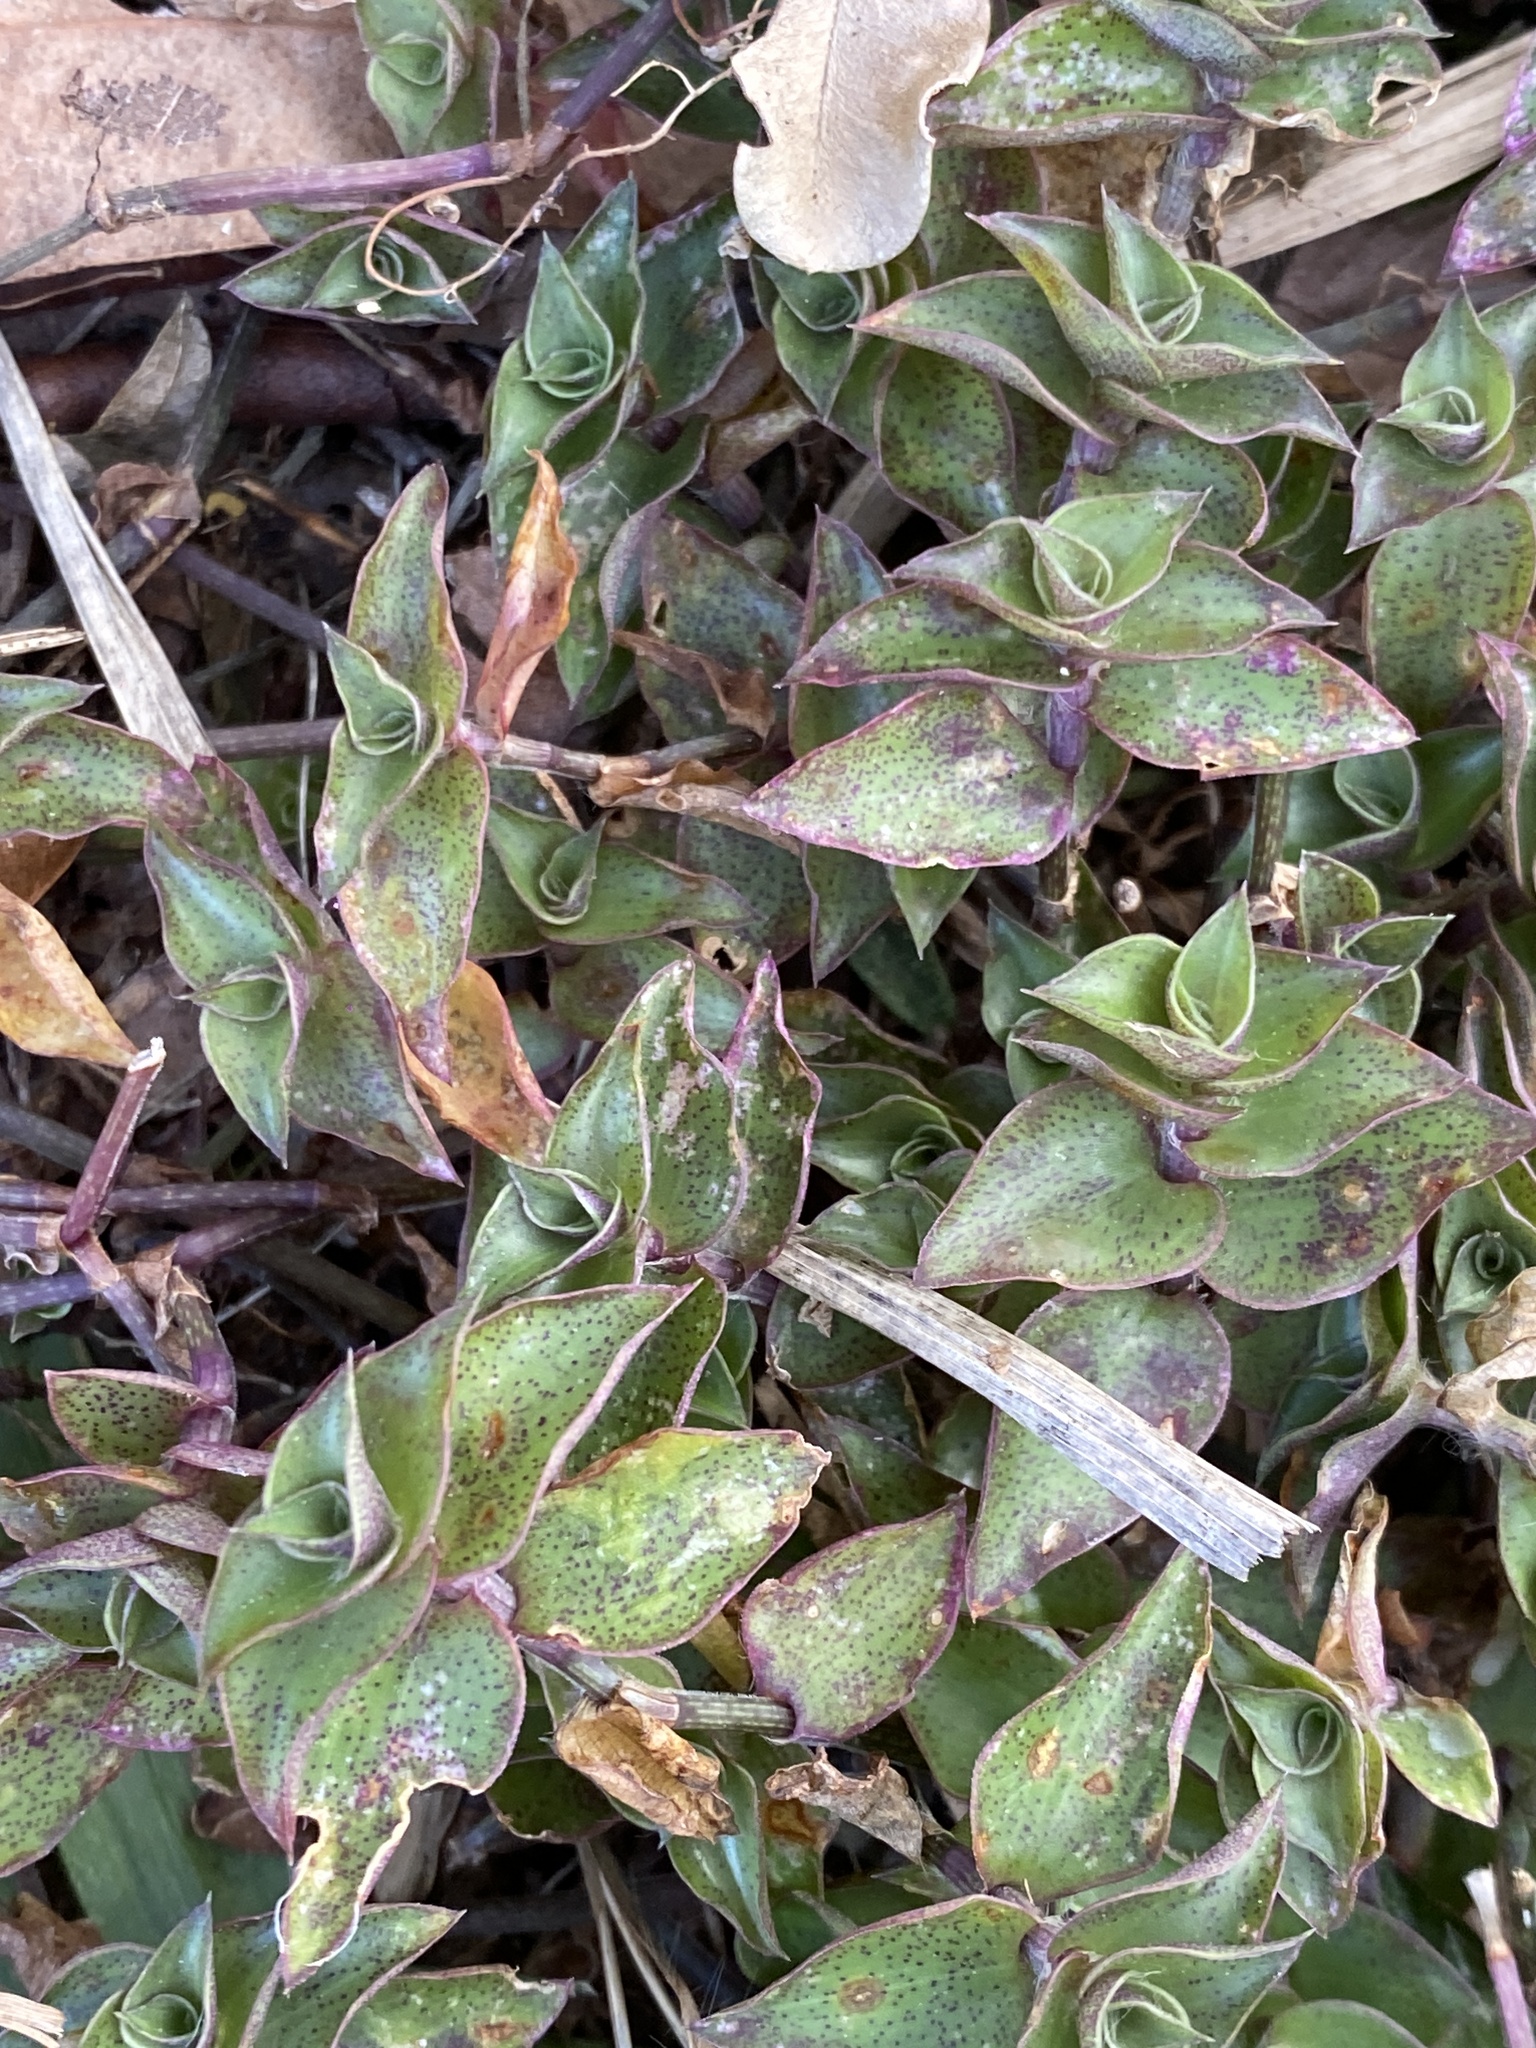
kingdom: Plantae
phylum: Tracheophyta
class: Liliopsida
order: Commelinales
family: Commelinaceae
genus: Callisia
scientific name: Callisia repens
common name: Creeping inchplant
